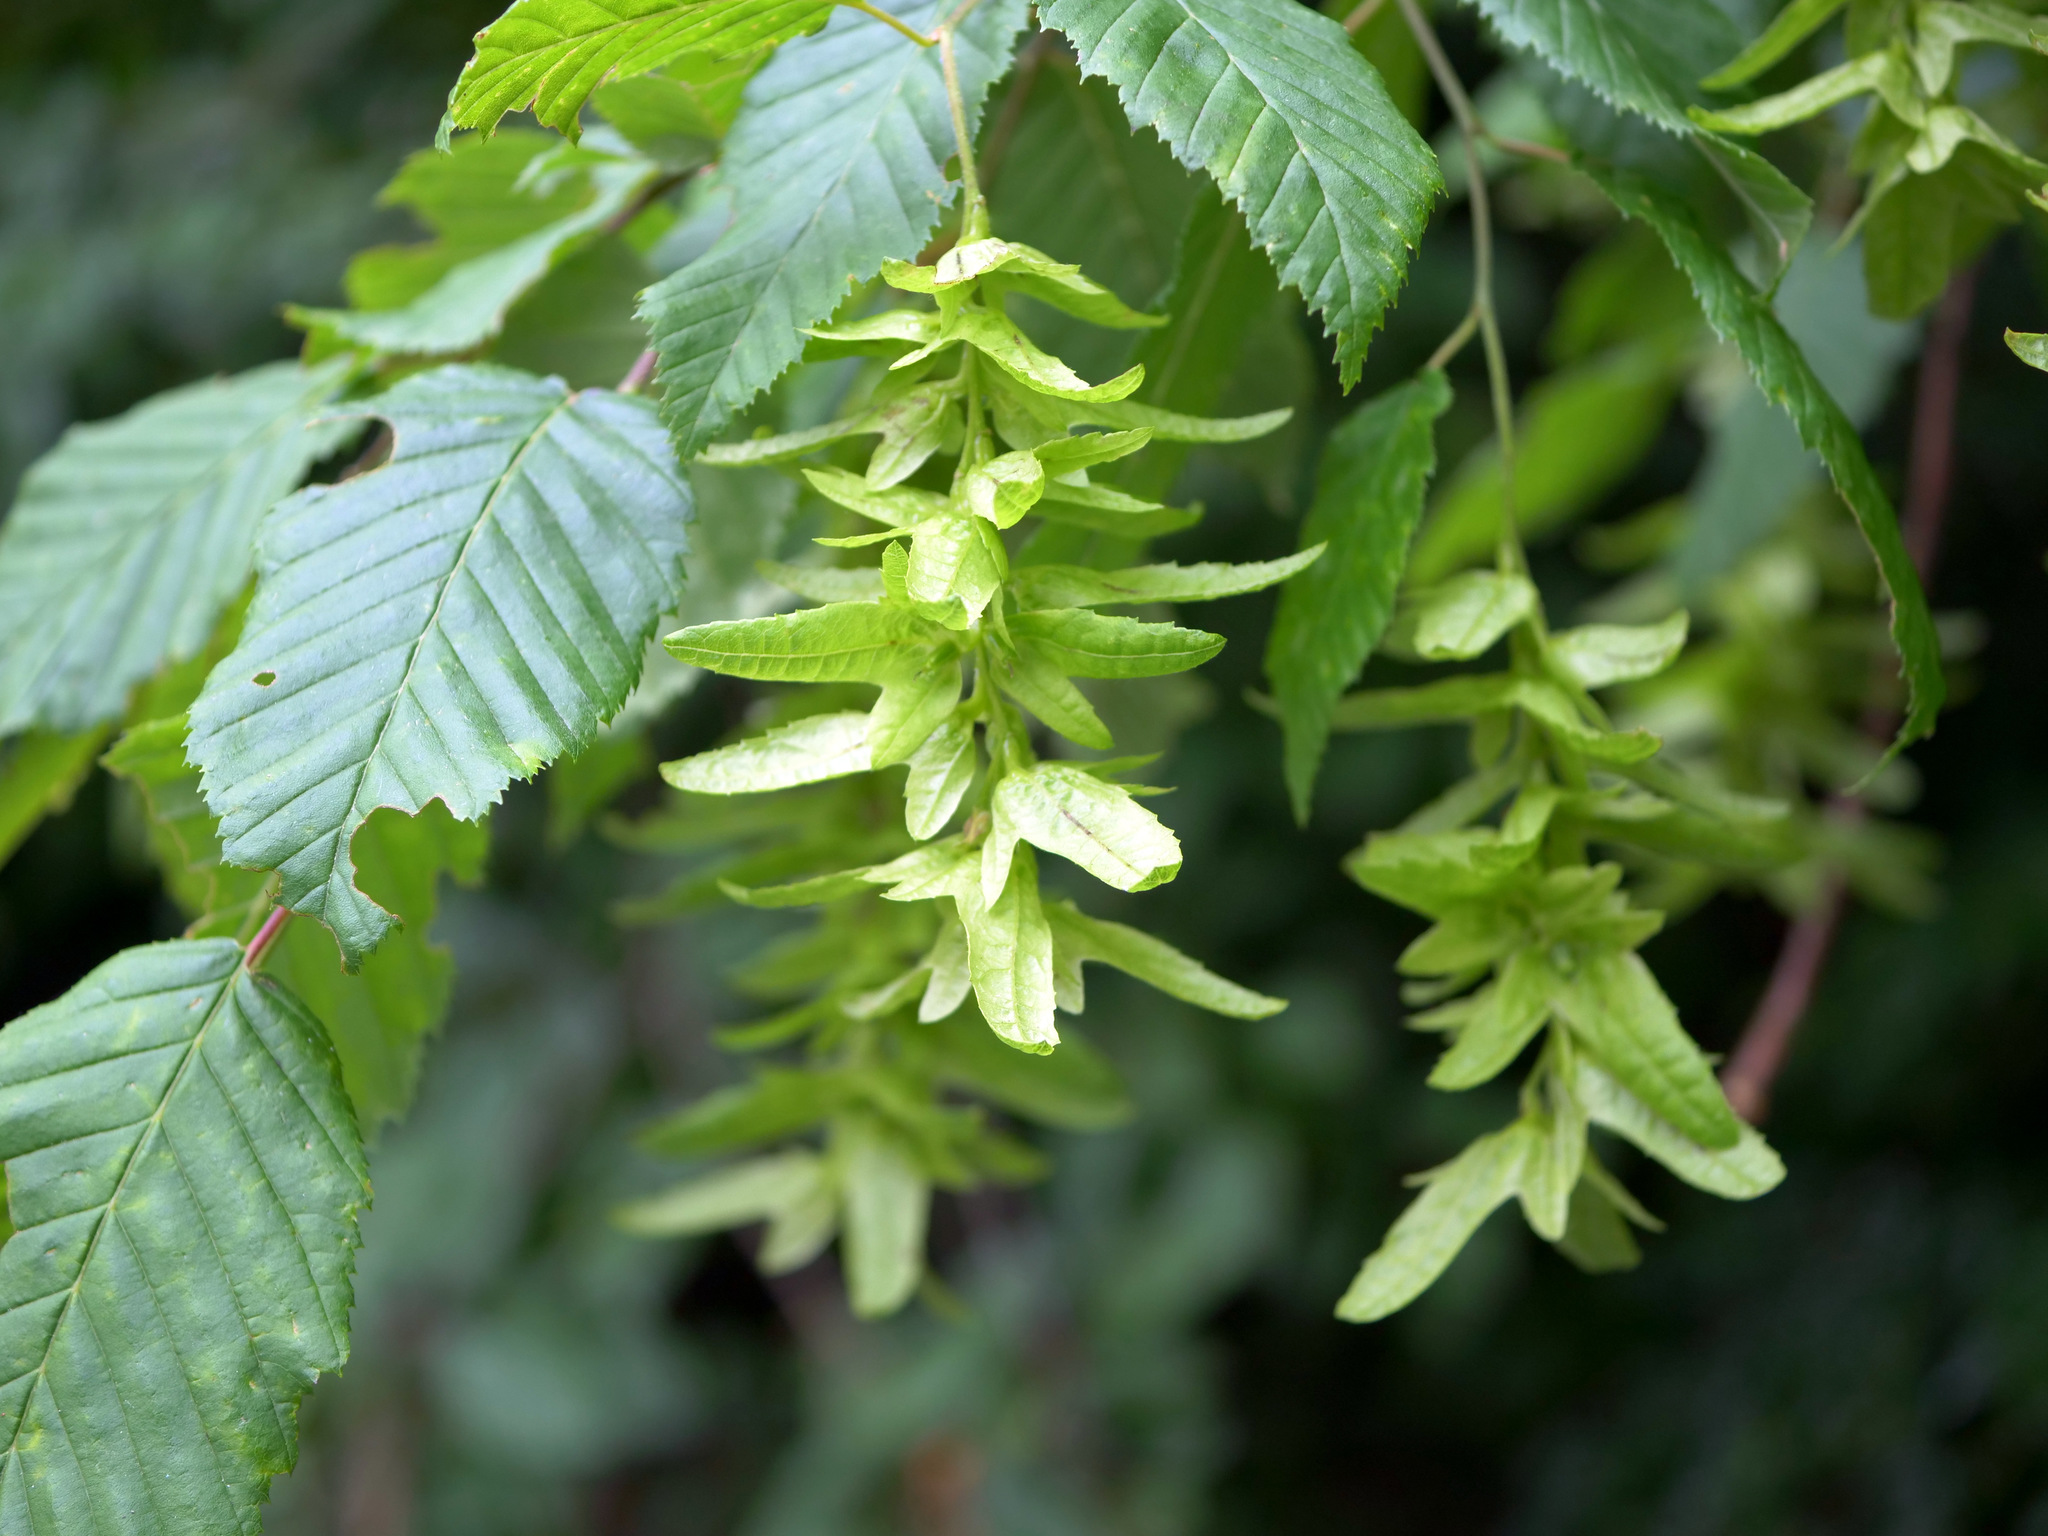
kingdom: Plantae
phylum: Tracheophyta
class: Magnoliopsida
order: Fagales
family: Betulaceae
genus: Carpinus
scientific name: Carpinus betulus
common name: Hornbeam
